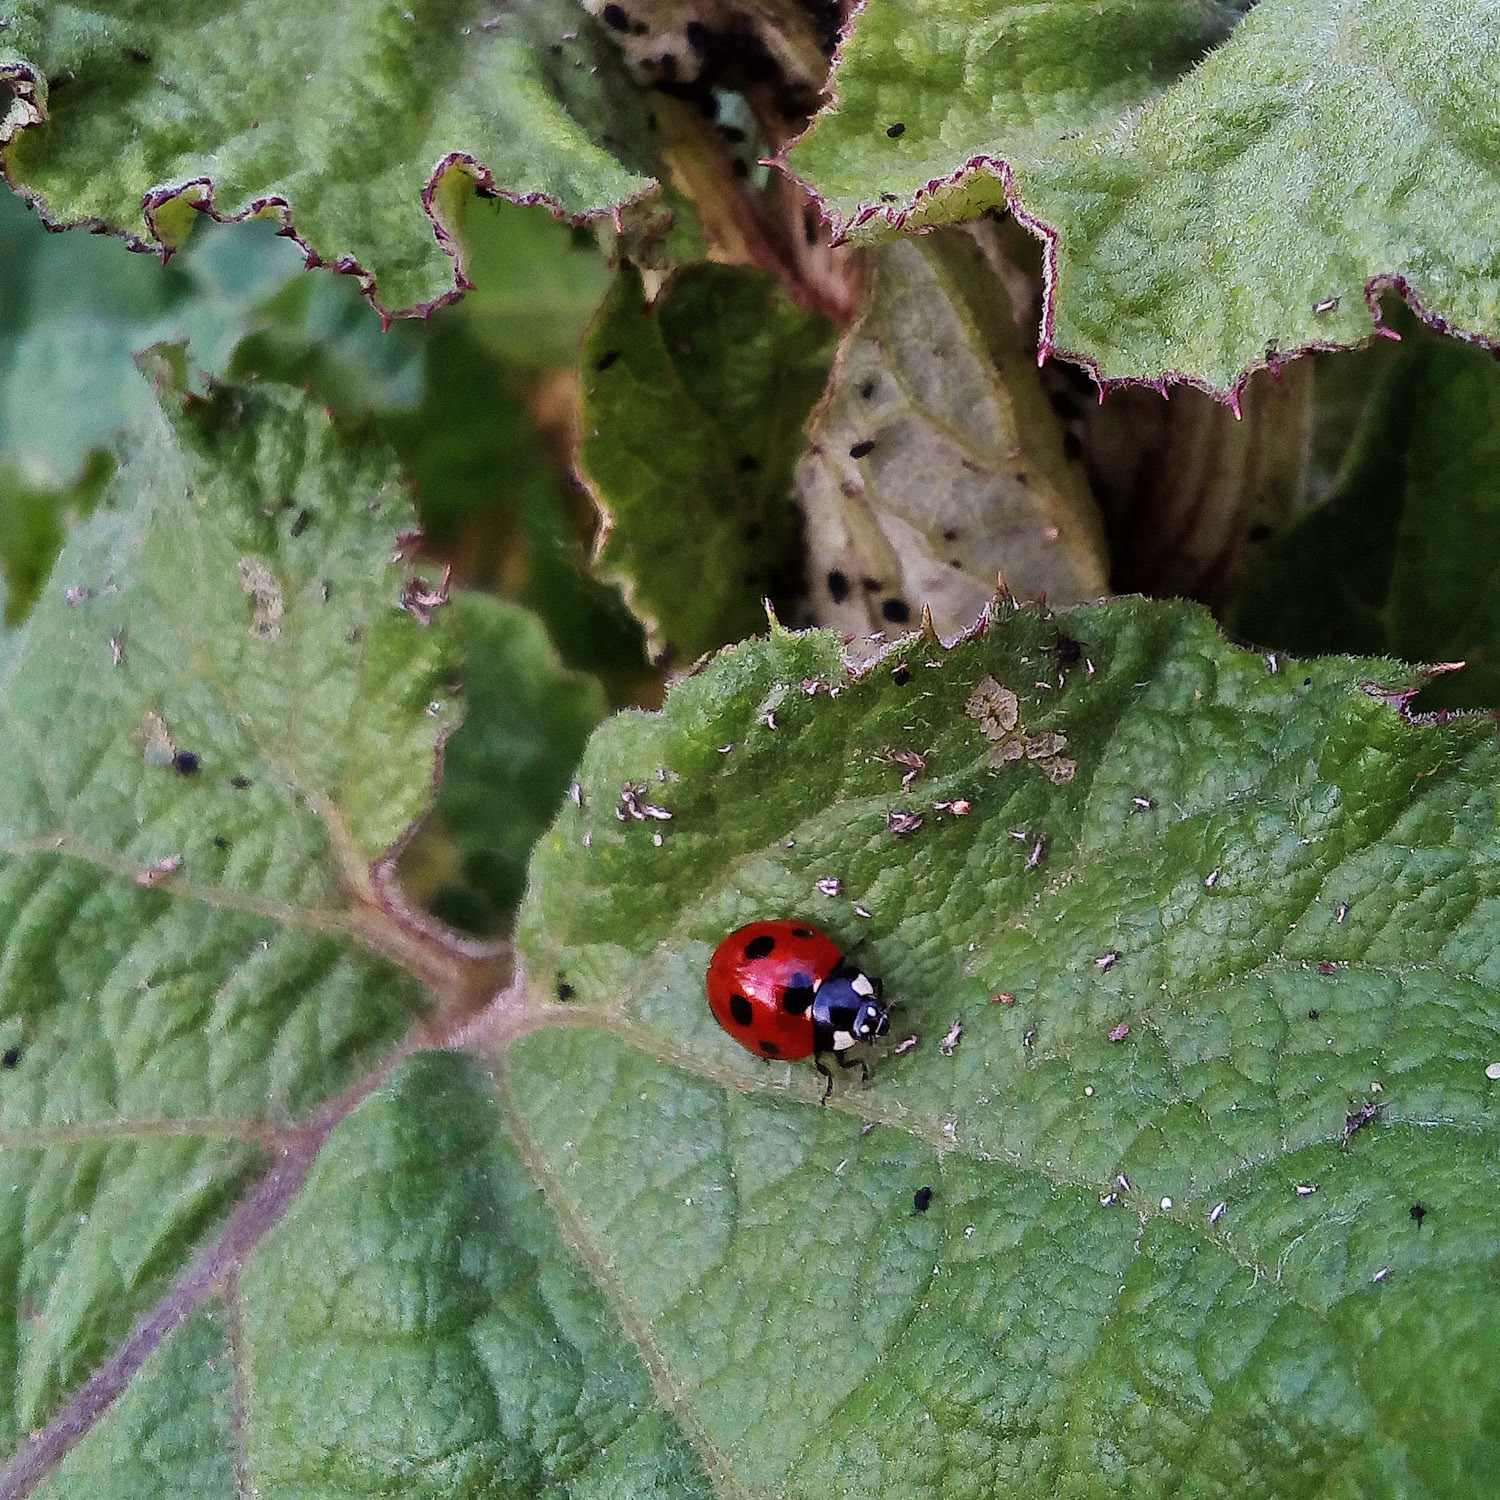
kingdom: Animalia
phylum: Arthropoda
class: Insecta
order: Coleoptera
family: Coccinellidae
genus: Coccinella
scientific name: Coccinella septempunctata
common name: Sevenspotted lady beetle
